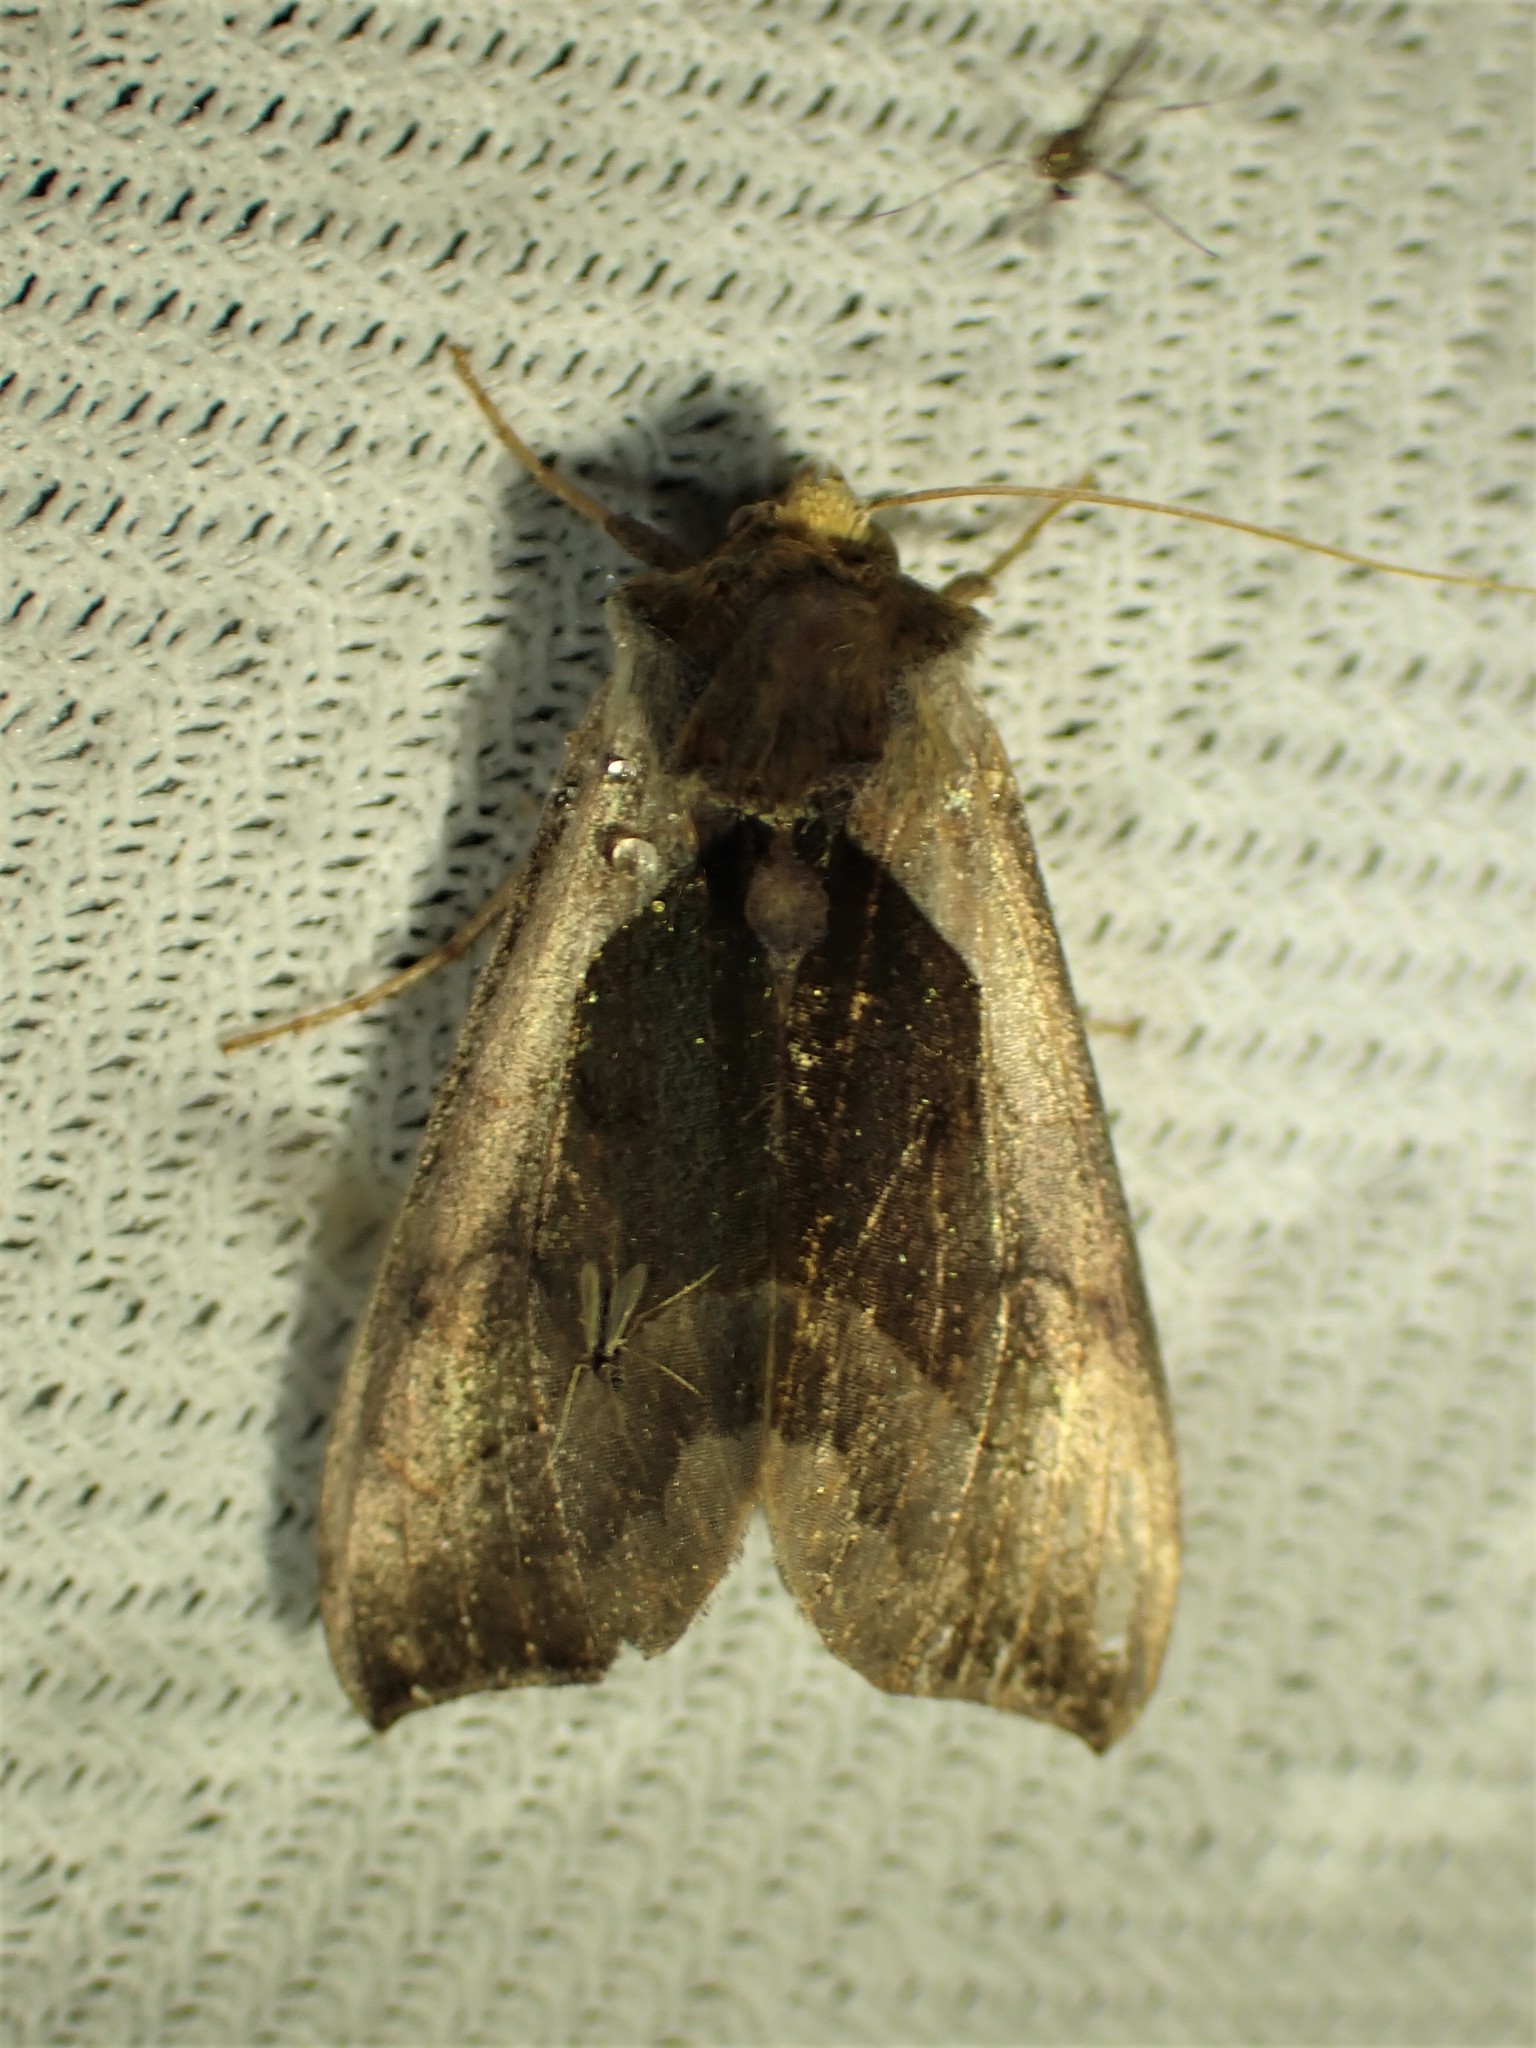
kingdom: Animalia
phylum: Arthropoda
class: Insecta
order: Lepidoptera
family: Noctuidae
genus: Diachrysia
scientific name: Diachrysia balluca
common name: Green-patched looper moth
